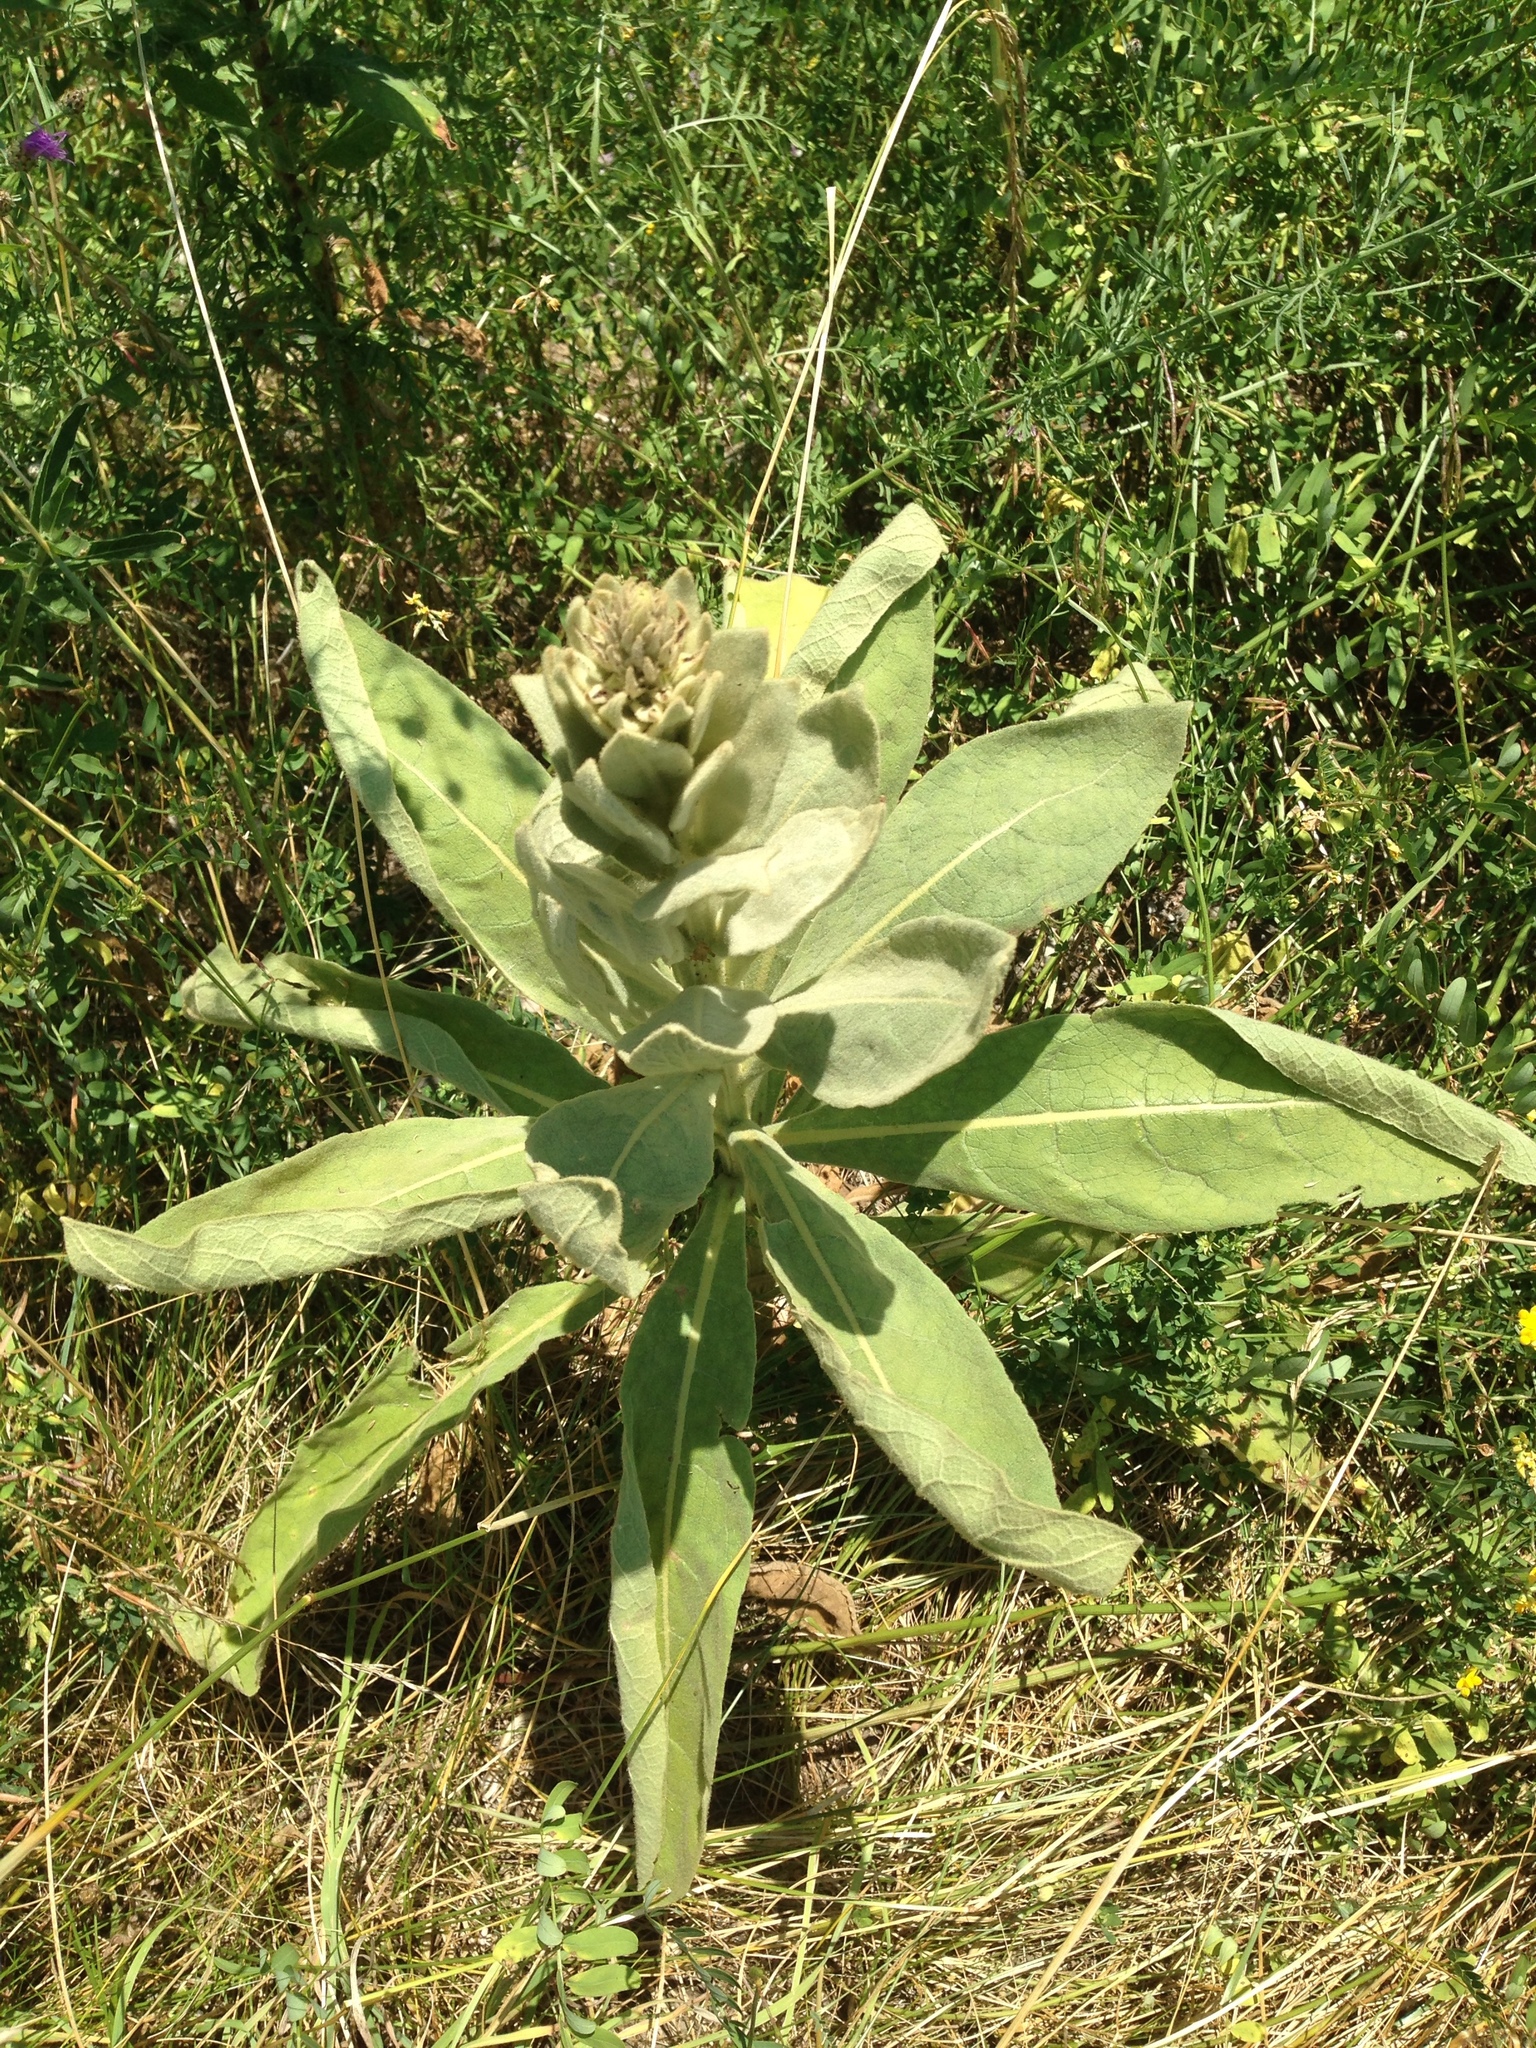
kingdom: Plantae
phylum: Tracheophyta
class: Magnoliopsida
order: Lamiales
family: Scrophulariaceae
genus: Verbascum
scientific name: Verbascum thapsus
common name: Common mullein
